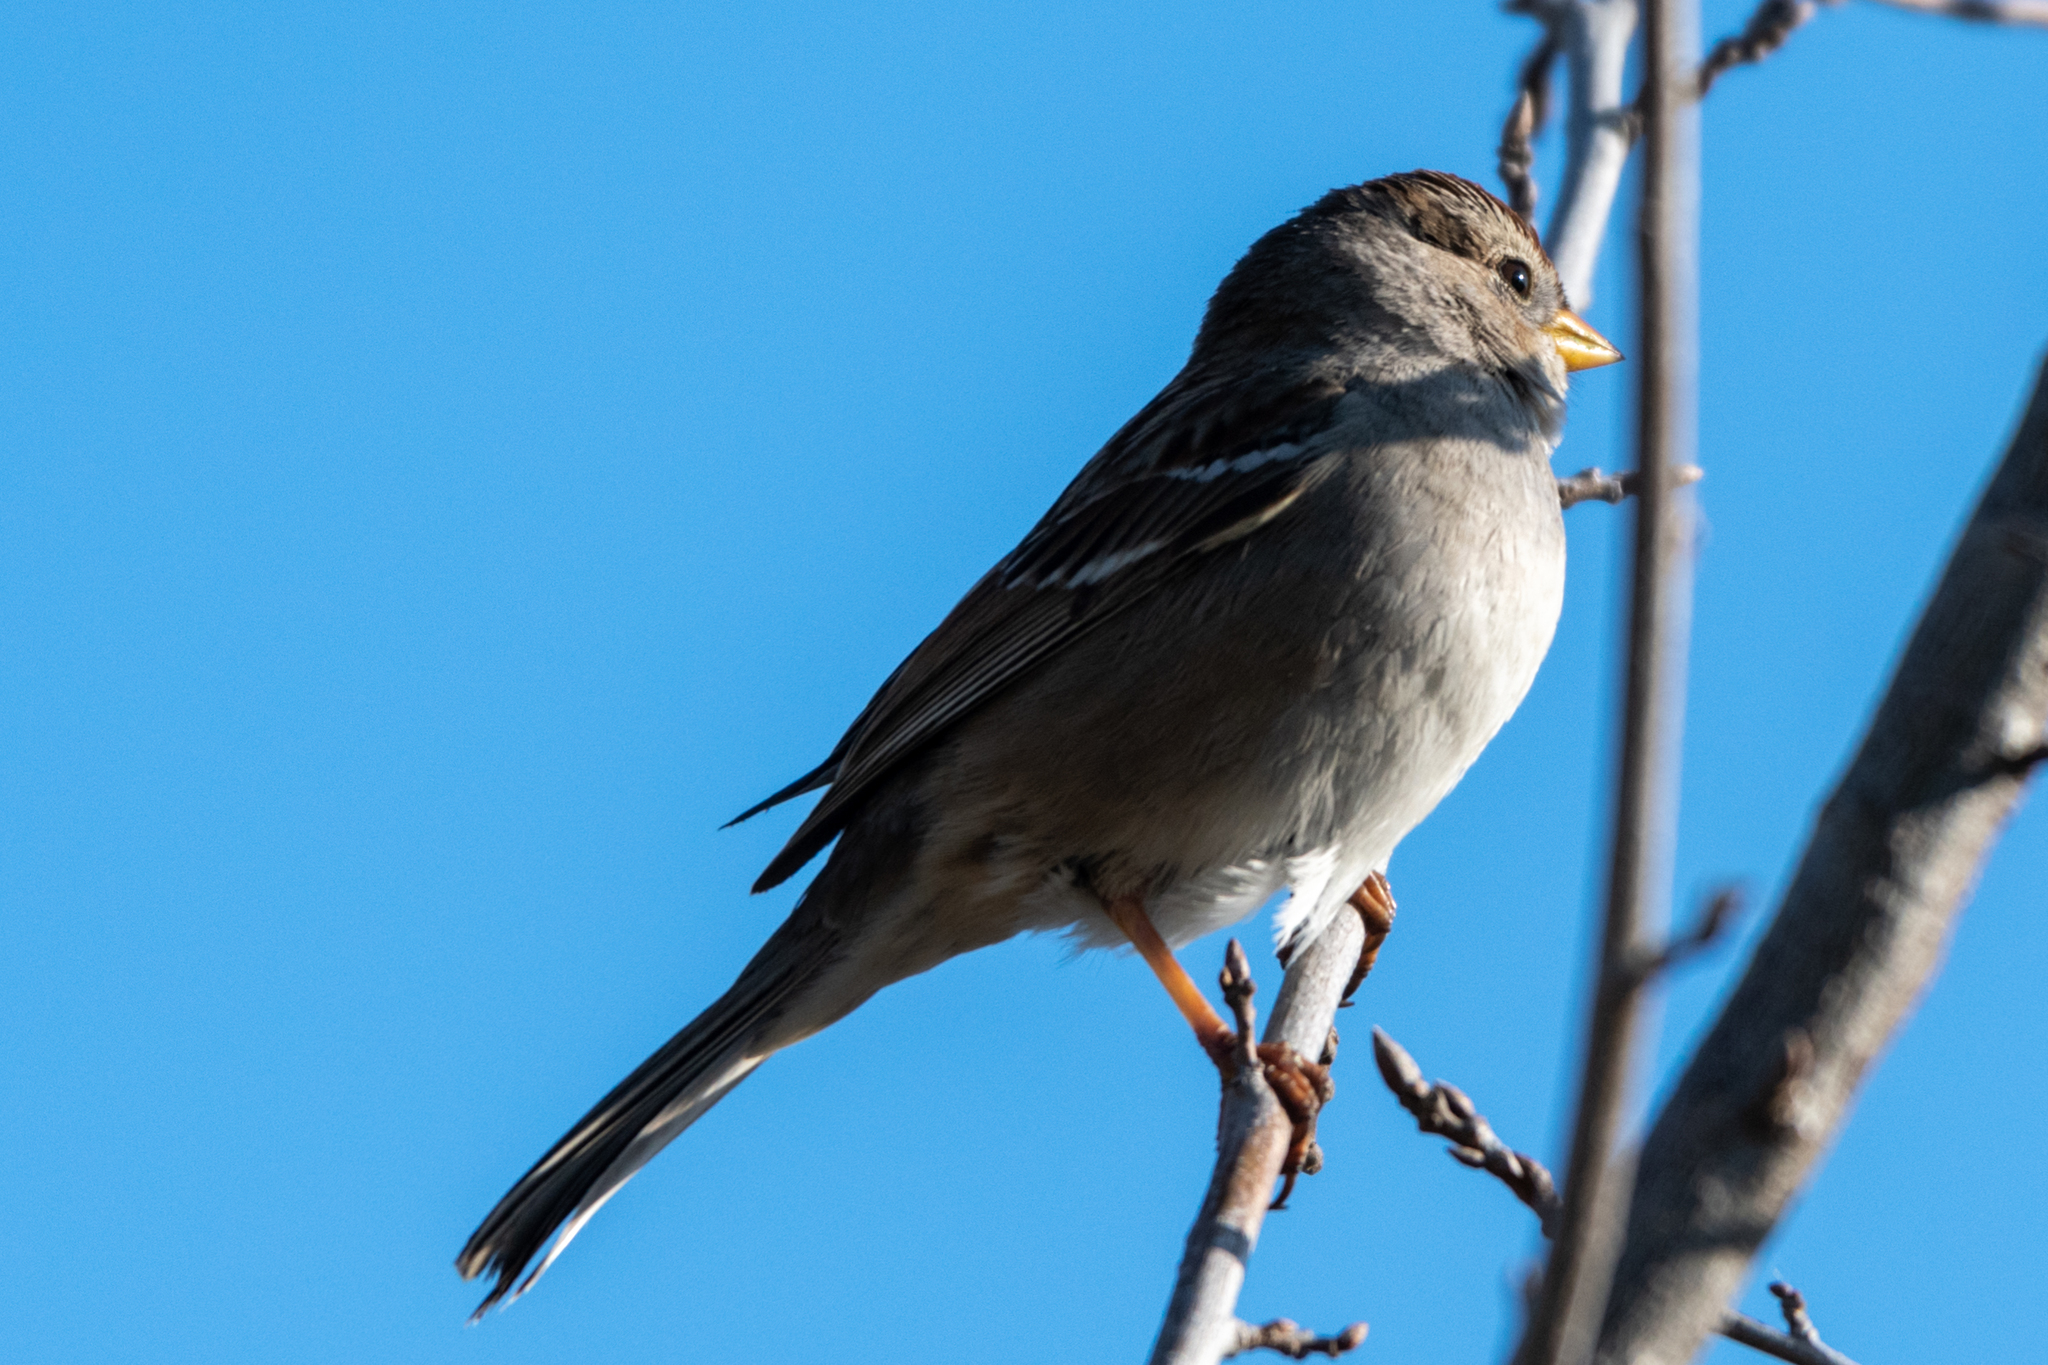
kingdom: Animalia
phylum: Chordata
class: Aves
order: Passeriformes
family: Passerellidae
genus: Zonotrichia
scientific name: Zonotrichia leucophrys
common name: White-crowned sparrow
